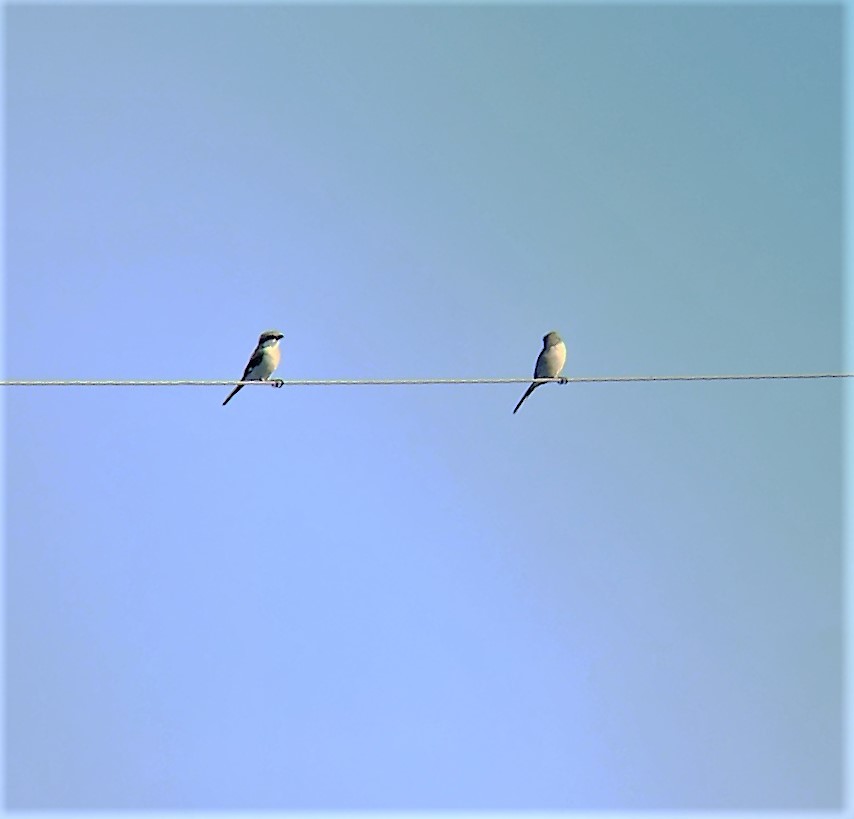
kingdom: Animalia
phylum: Chordata
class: Aves
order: Passeriformes
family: Laniidae
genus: Lanius
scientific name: Lanius ludovicianus
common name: Loggerhead shrike
